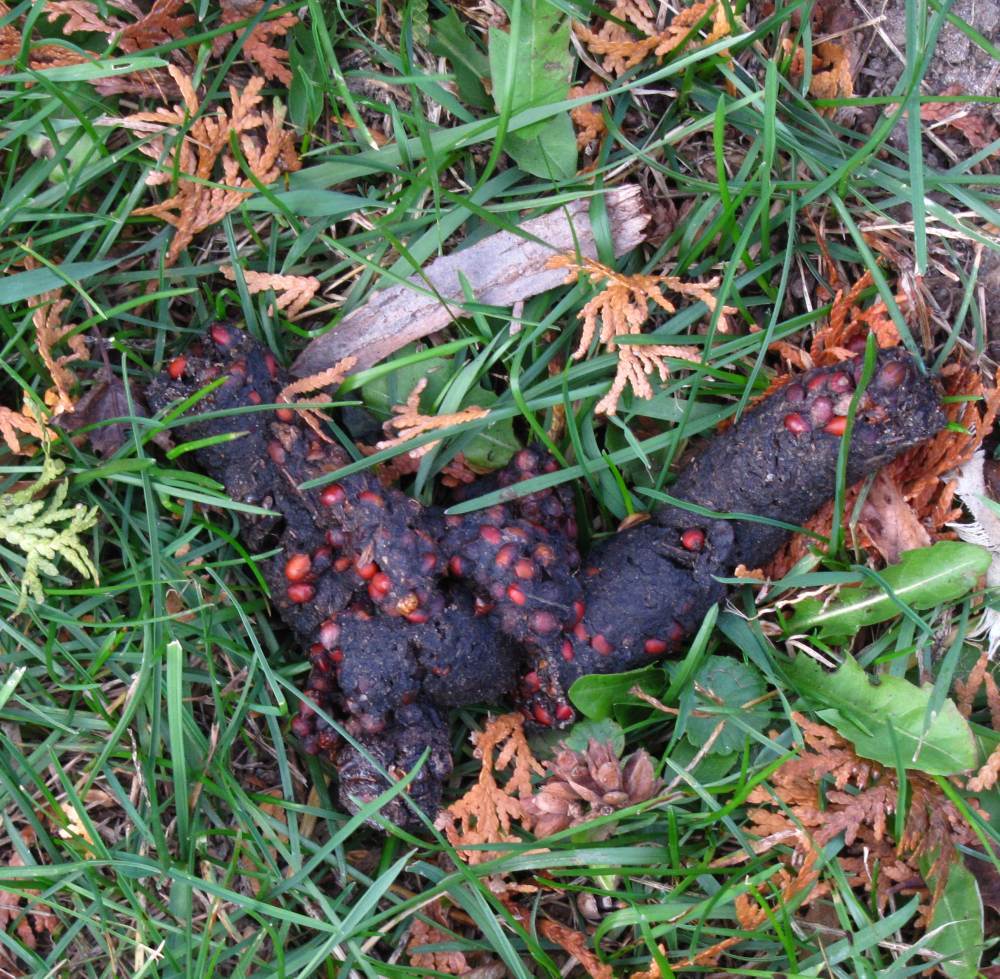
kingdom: Animalia
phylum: Chordata
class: Mammalia
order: Carnivora
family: Procyonidae
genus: Procyon
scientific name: Procyon lotor
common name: Raccoon
